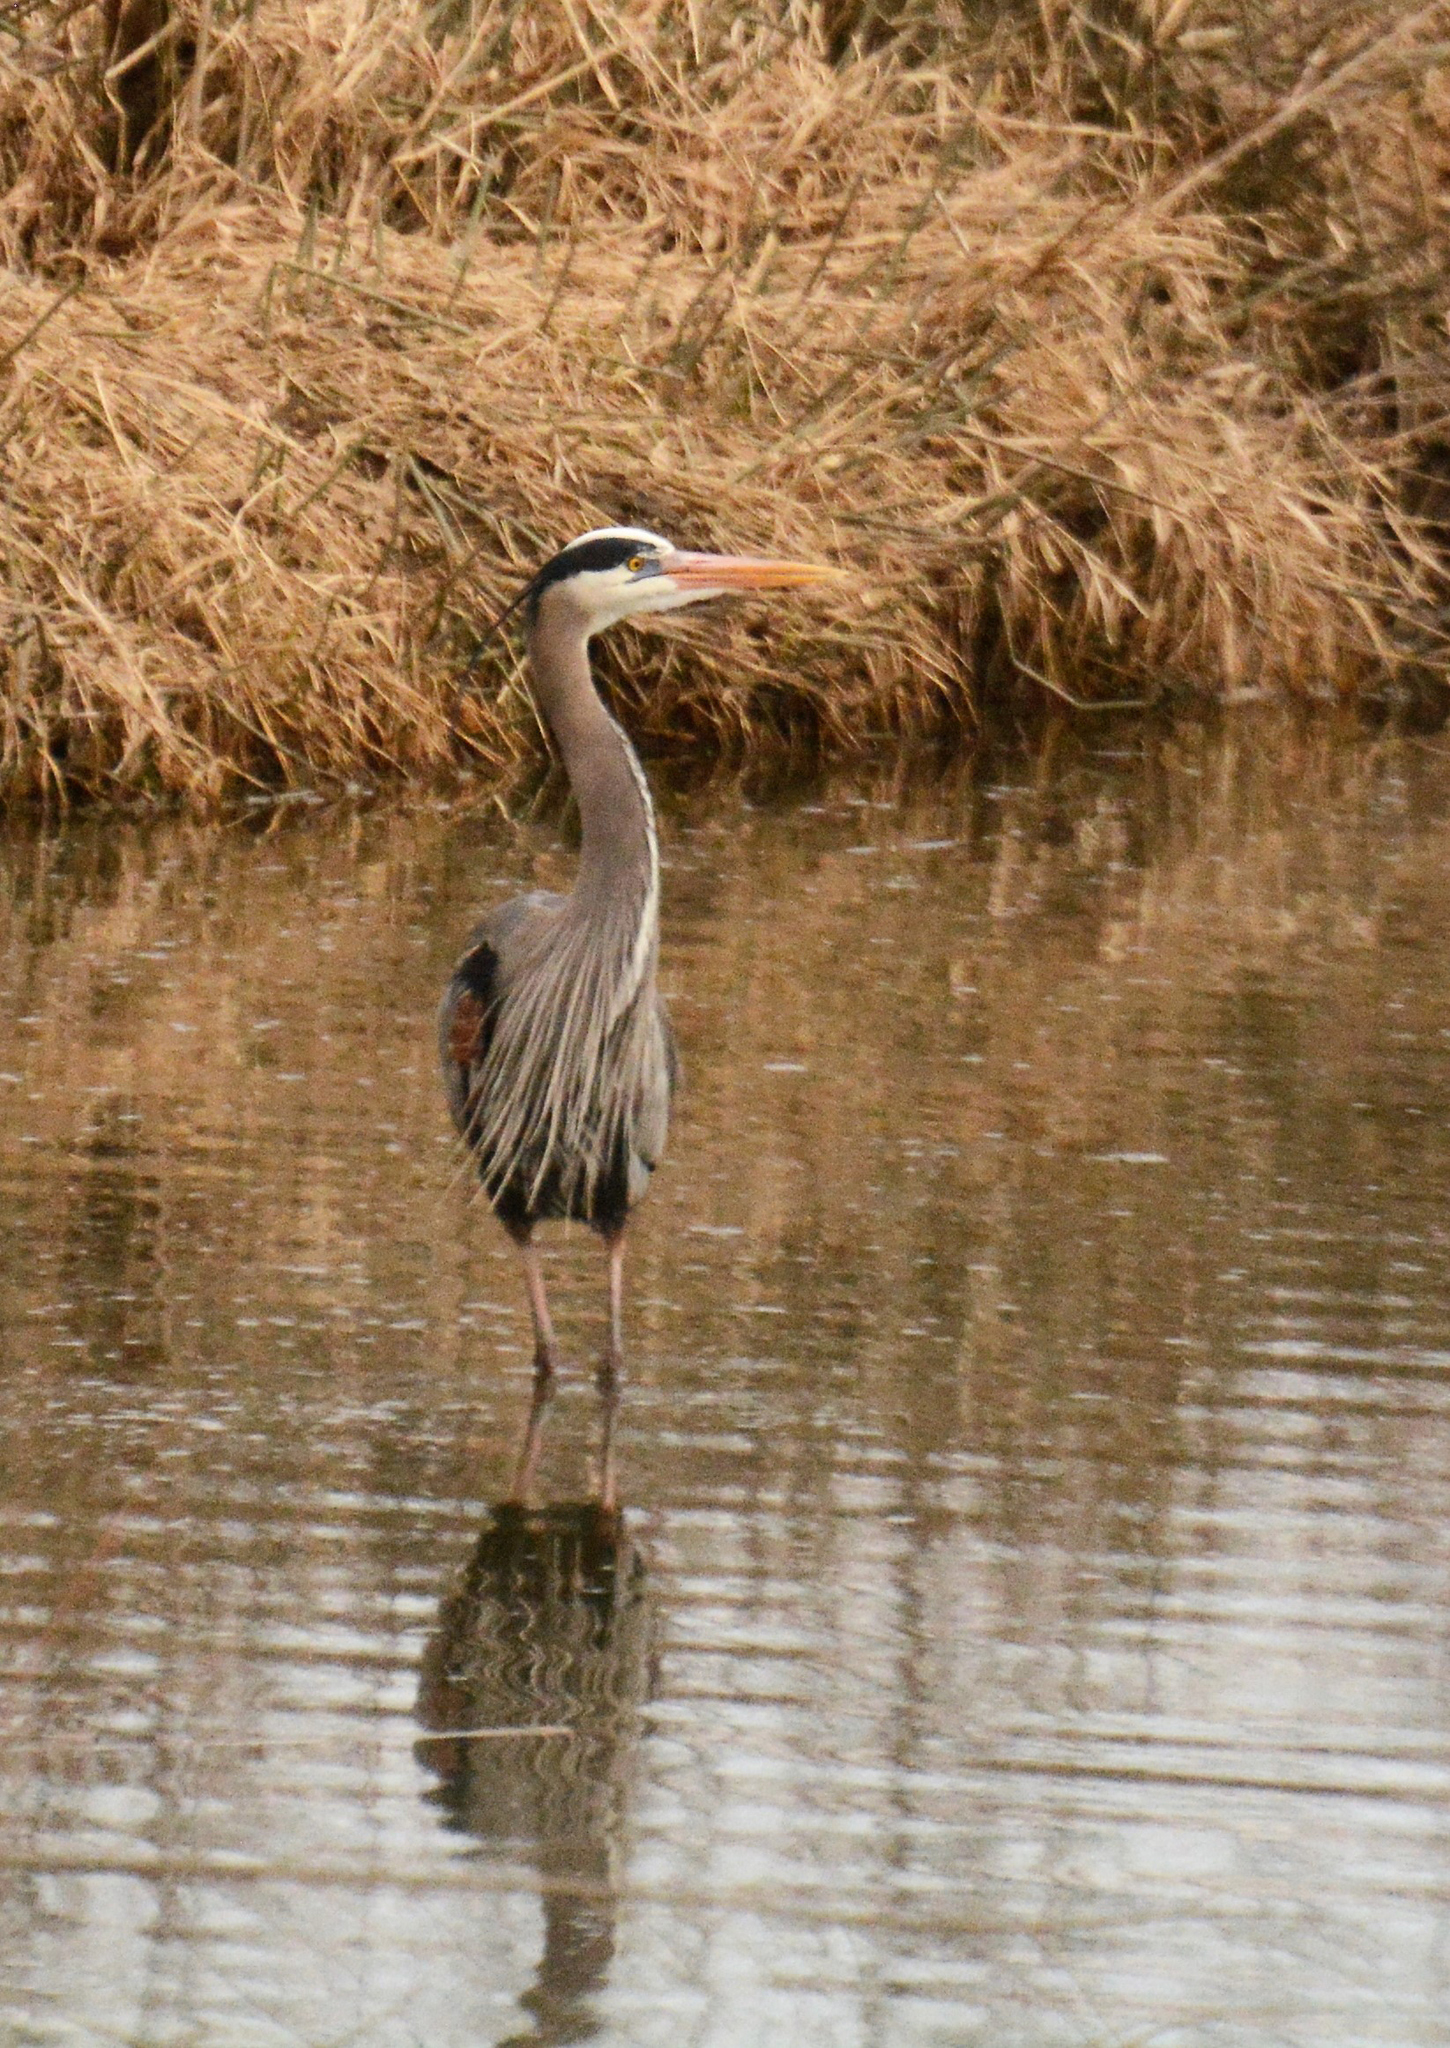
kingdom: Animalia
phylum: Chordata
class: Aves
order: Pelecaniformes
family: Ardeidae
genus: Ardea
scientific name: Ardea herodias
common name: Great blue heron
